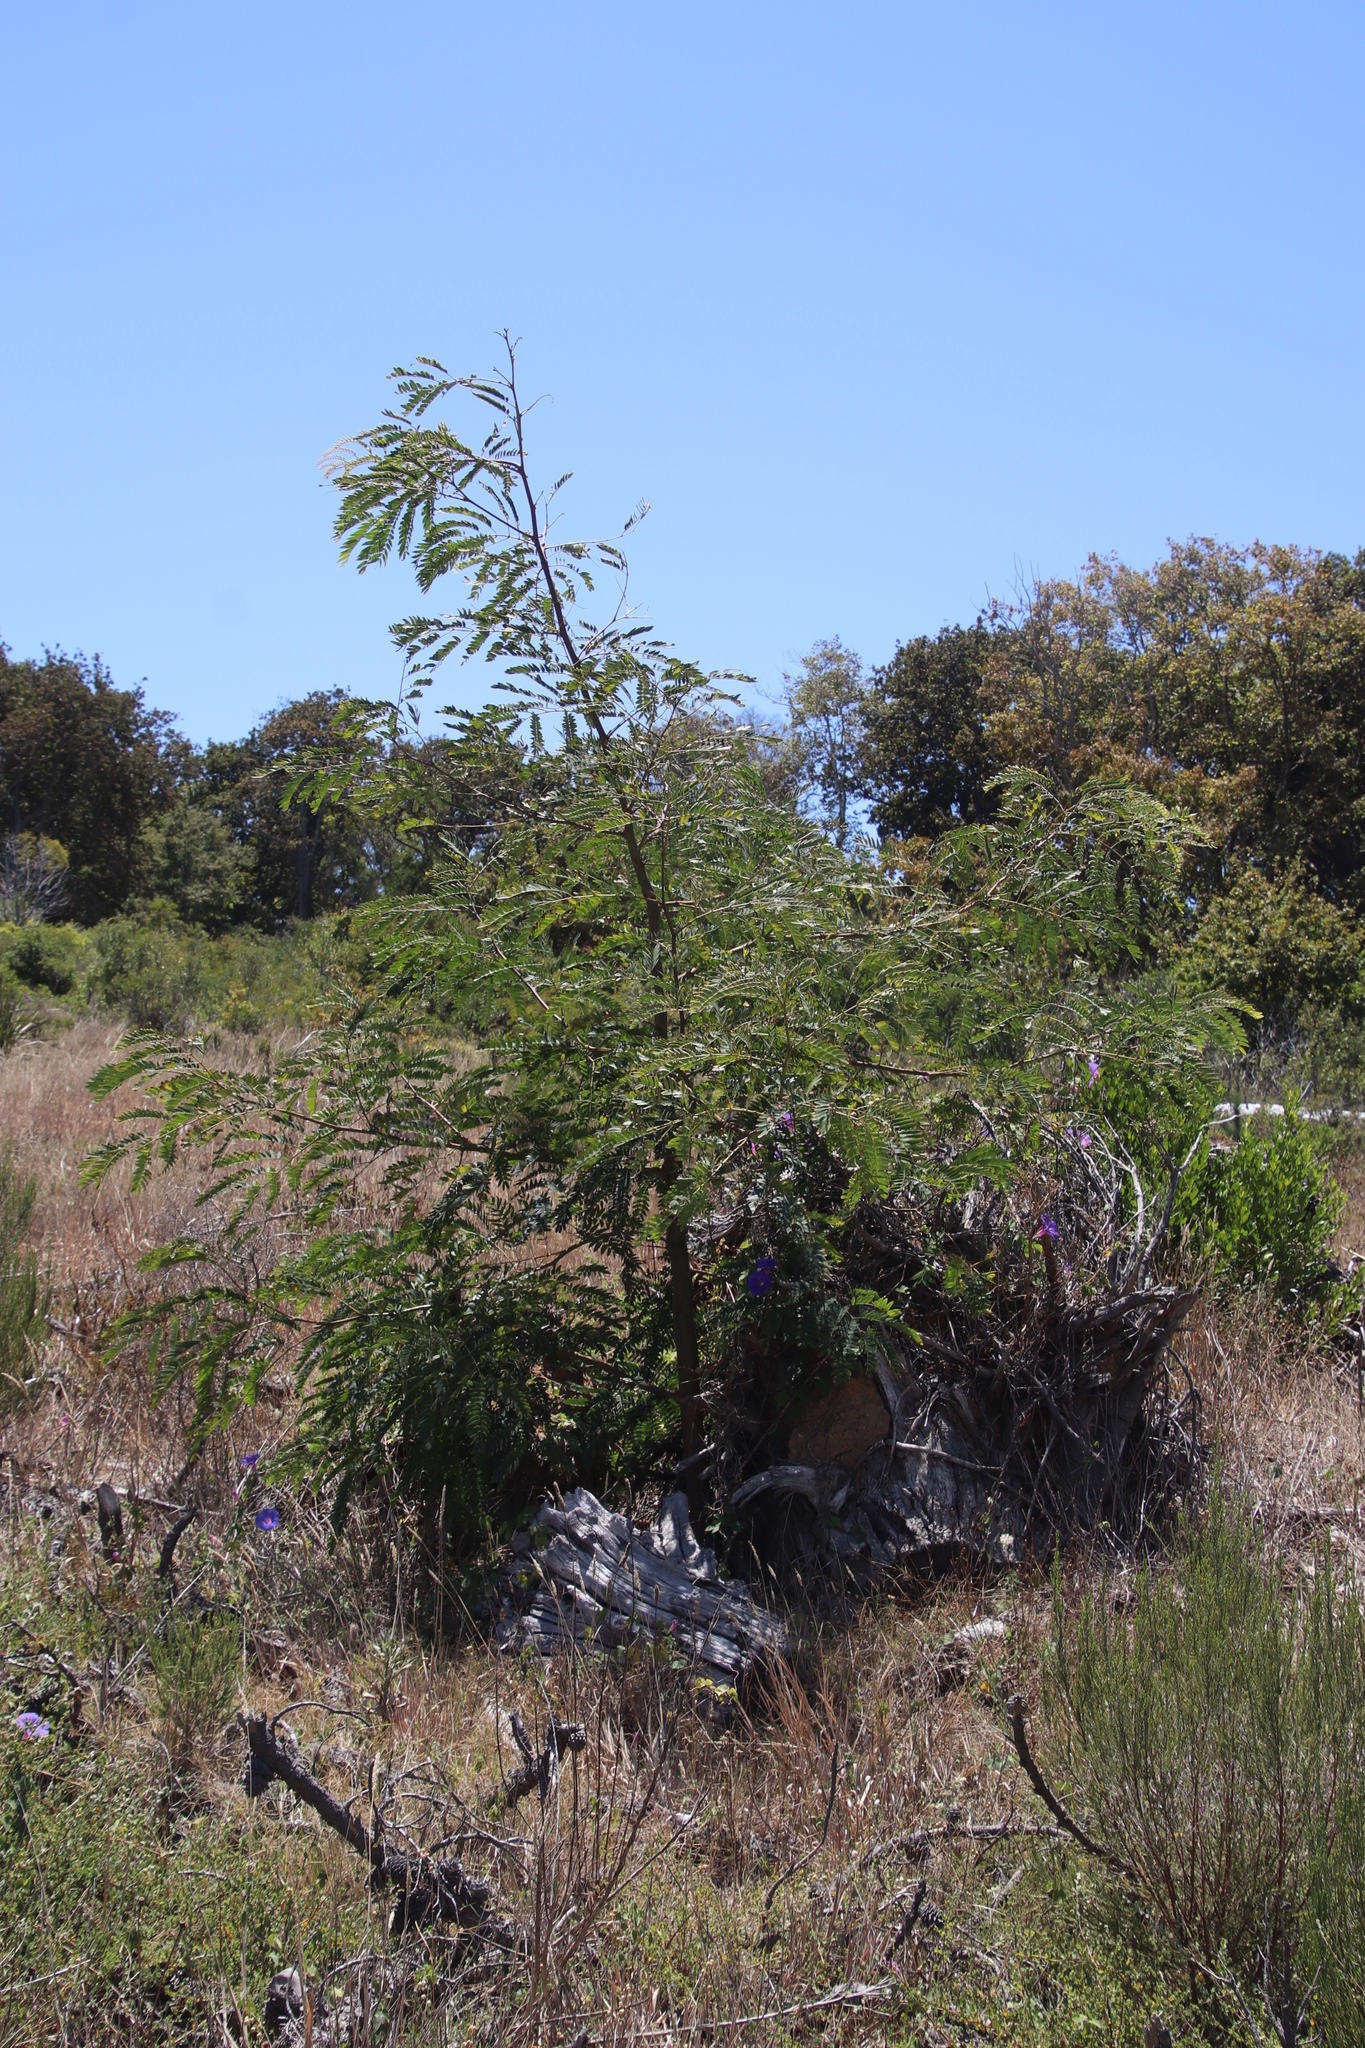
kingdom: Plantae
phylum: Tracheophyta
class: Magnoliopsida
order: Fabales
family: Fabaceae
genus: Acacia
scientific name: Acacia elata
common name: Cedar wattle
